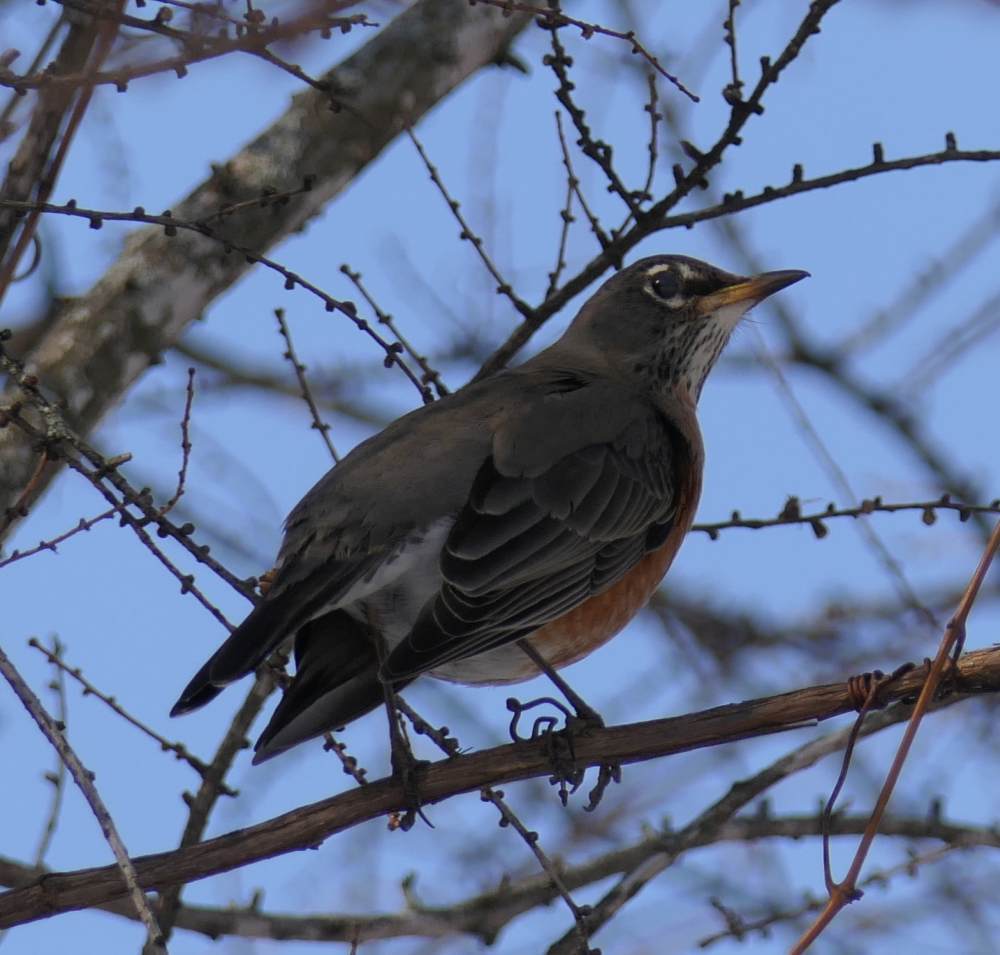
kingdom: Animalia
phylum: Chordata
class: Aves
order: Passeriformes
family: Turdidae
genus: Turdus
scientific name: Turdus migratorius
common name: American robin
